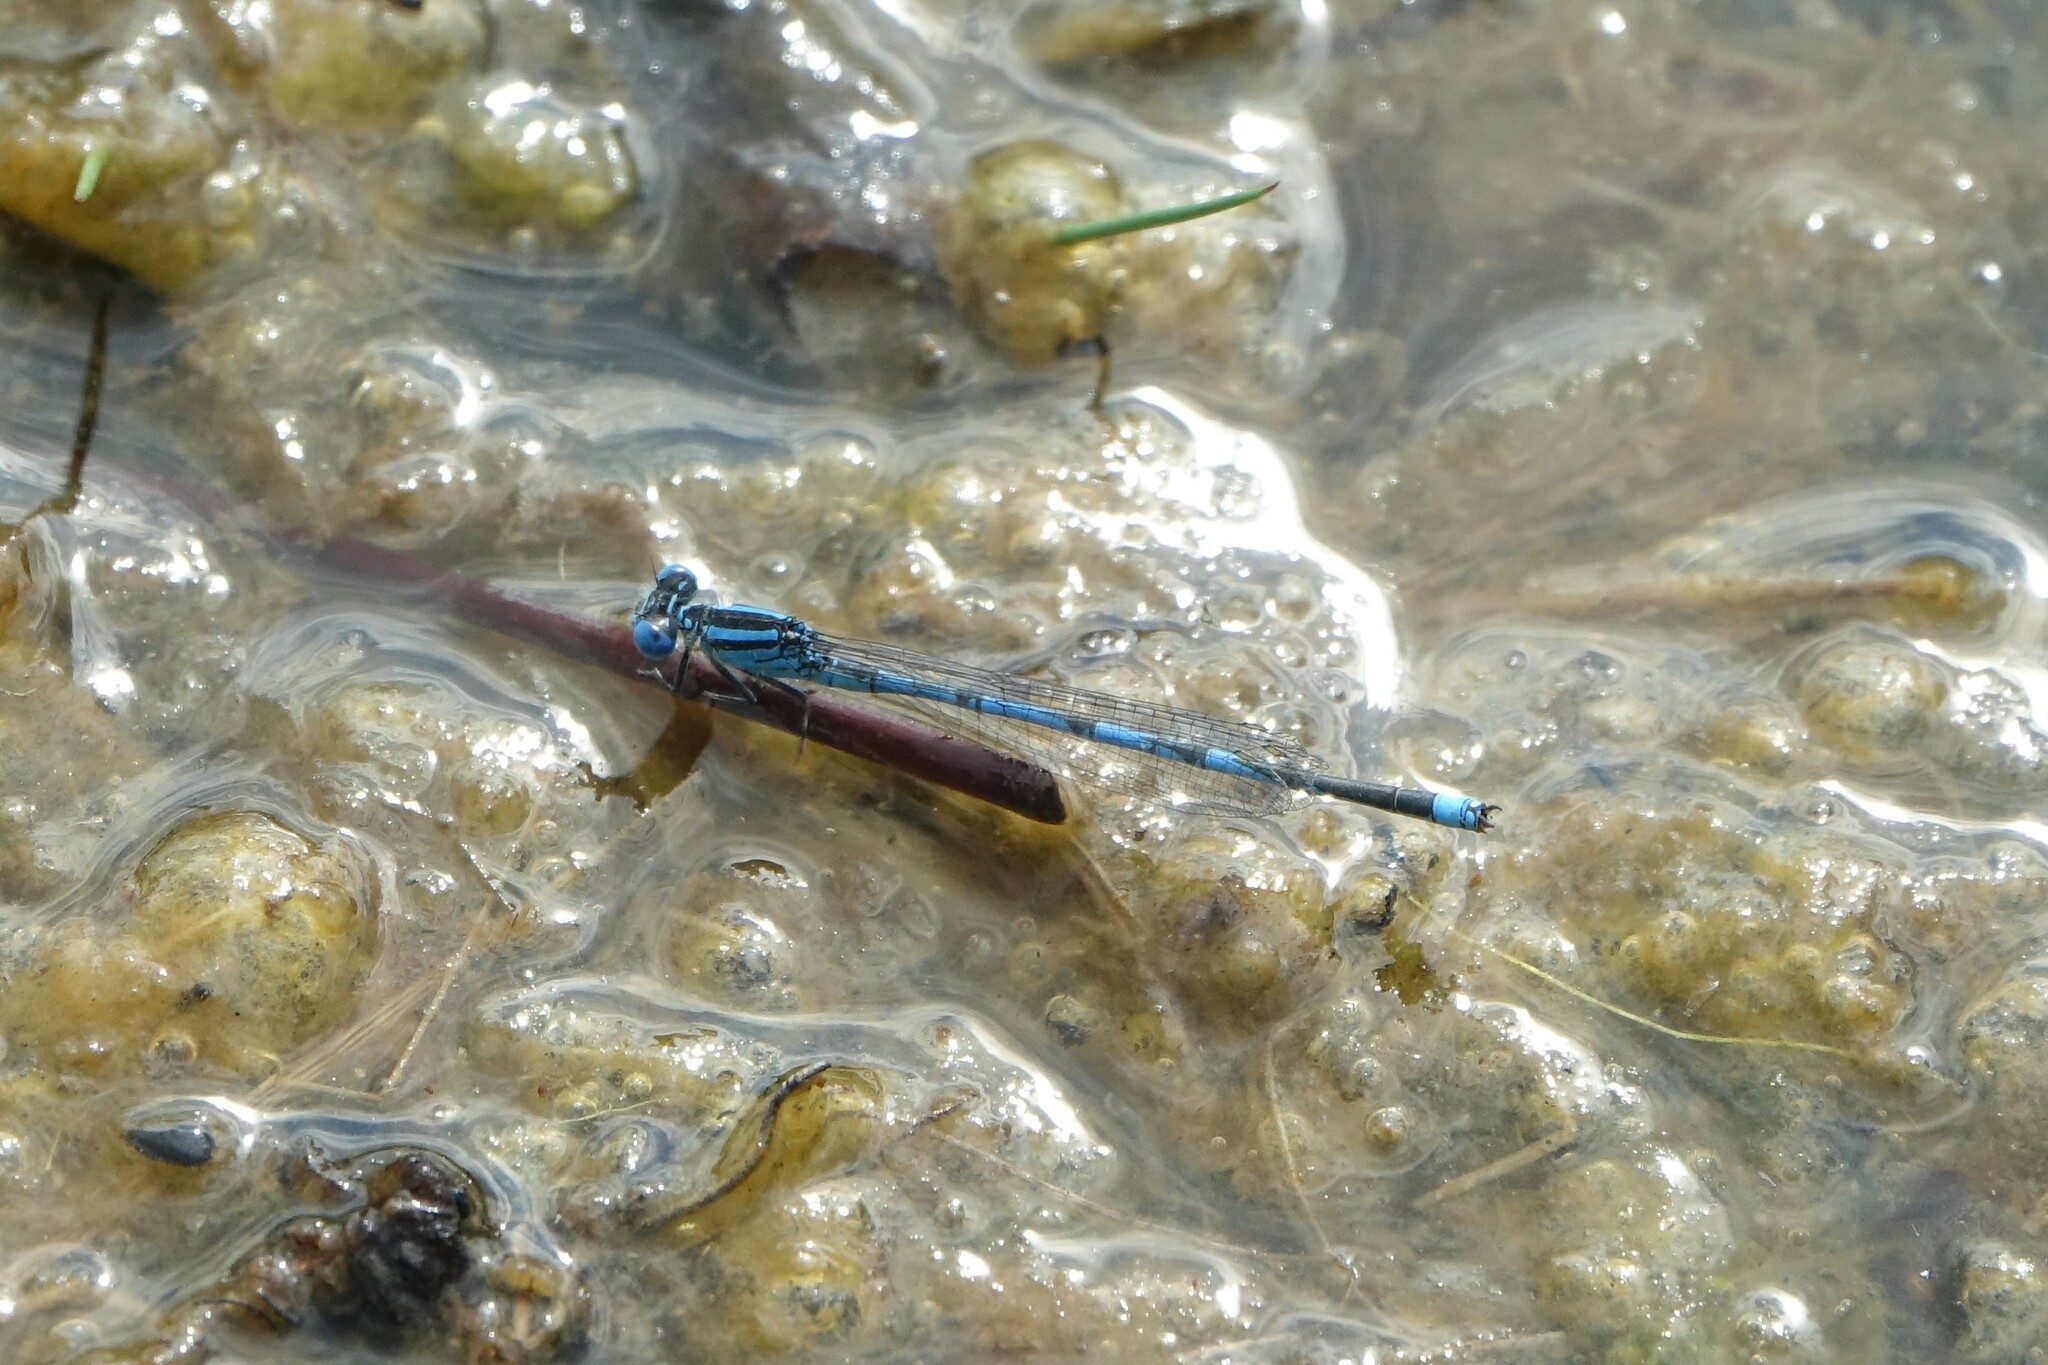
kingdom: Animalia
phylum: Arthropoda
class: Insecta
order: Odonata
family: Coenagrionidae
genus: Erythromma
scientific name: Erythromma lindenii
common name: Blue-eye
